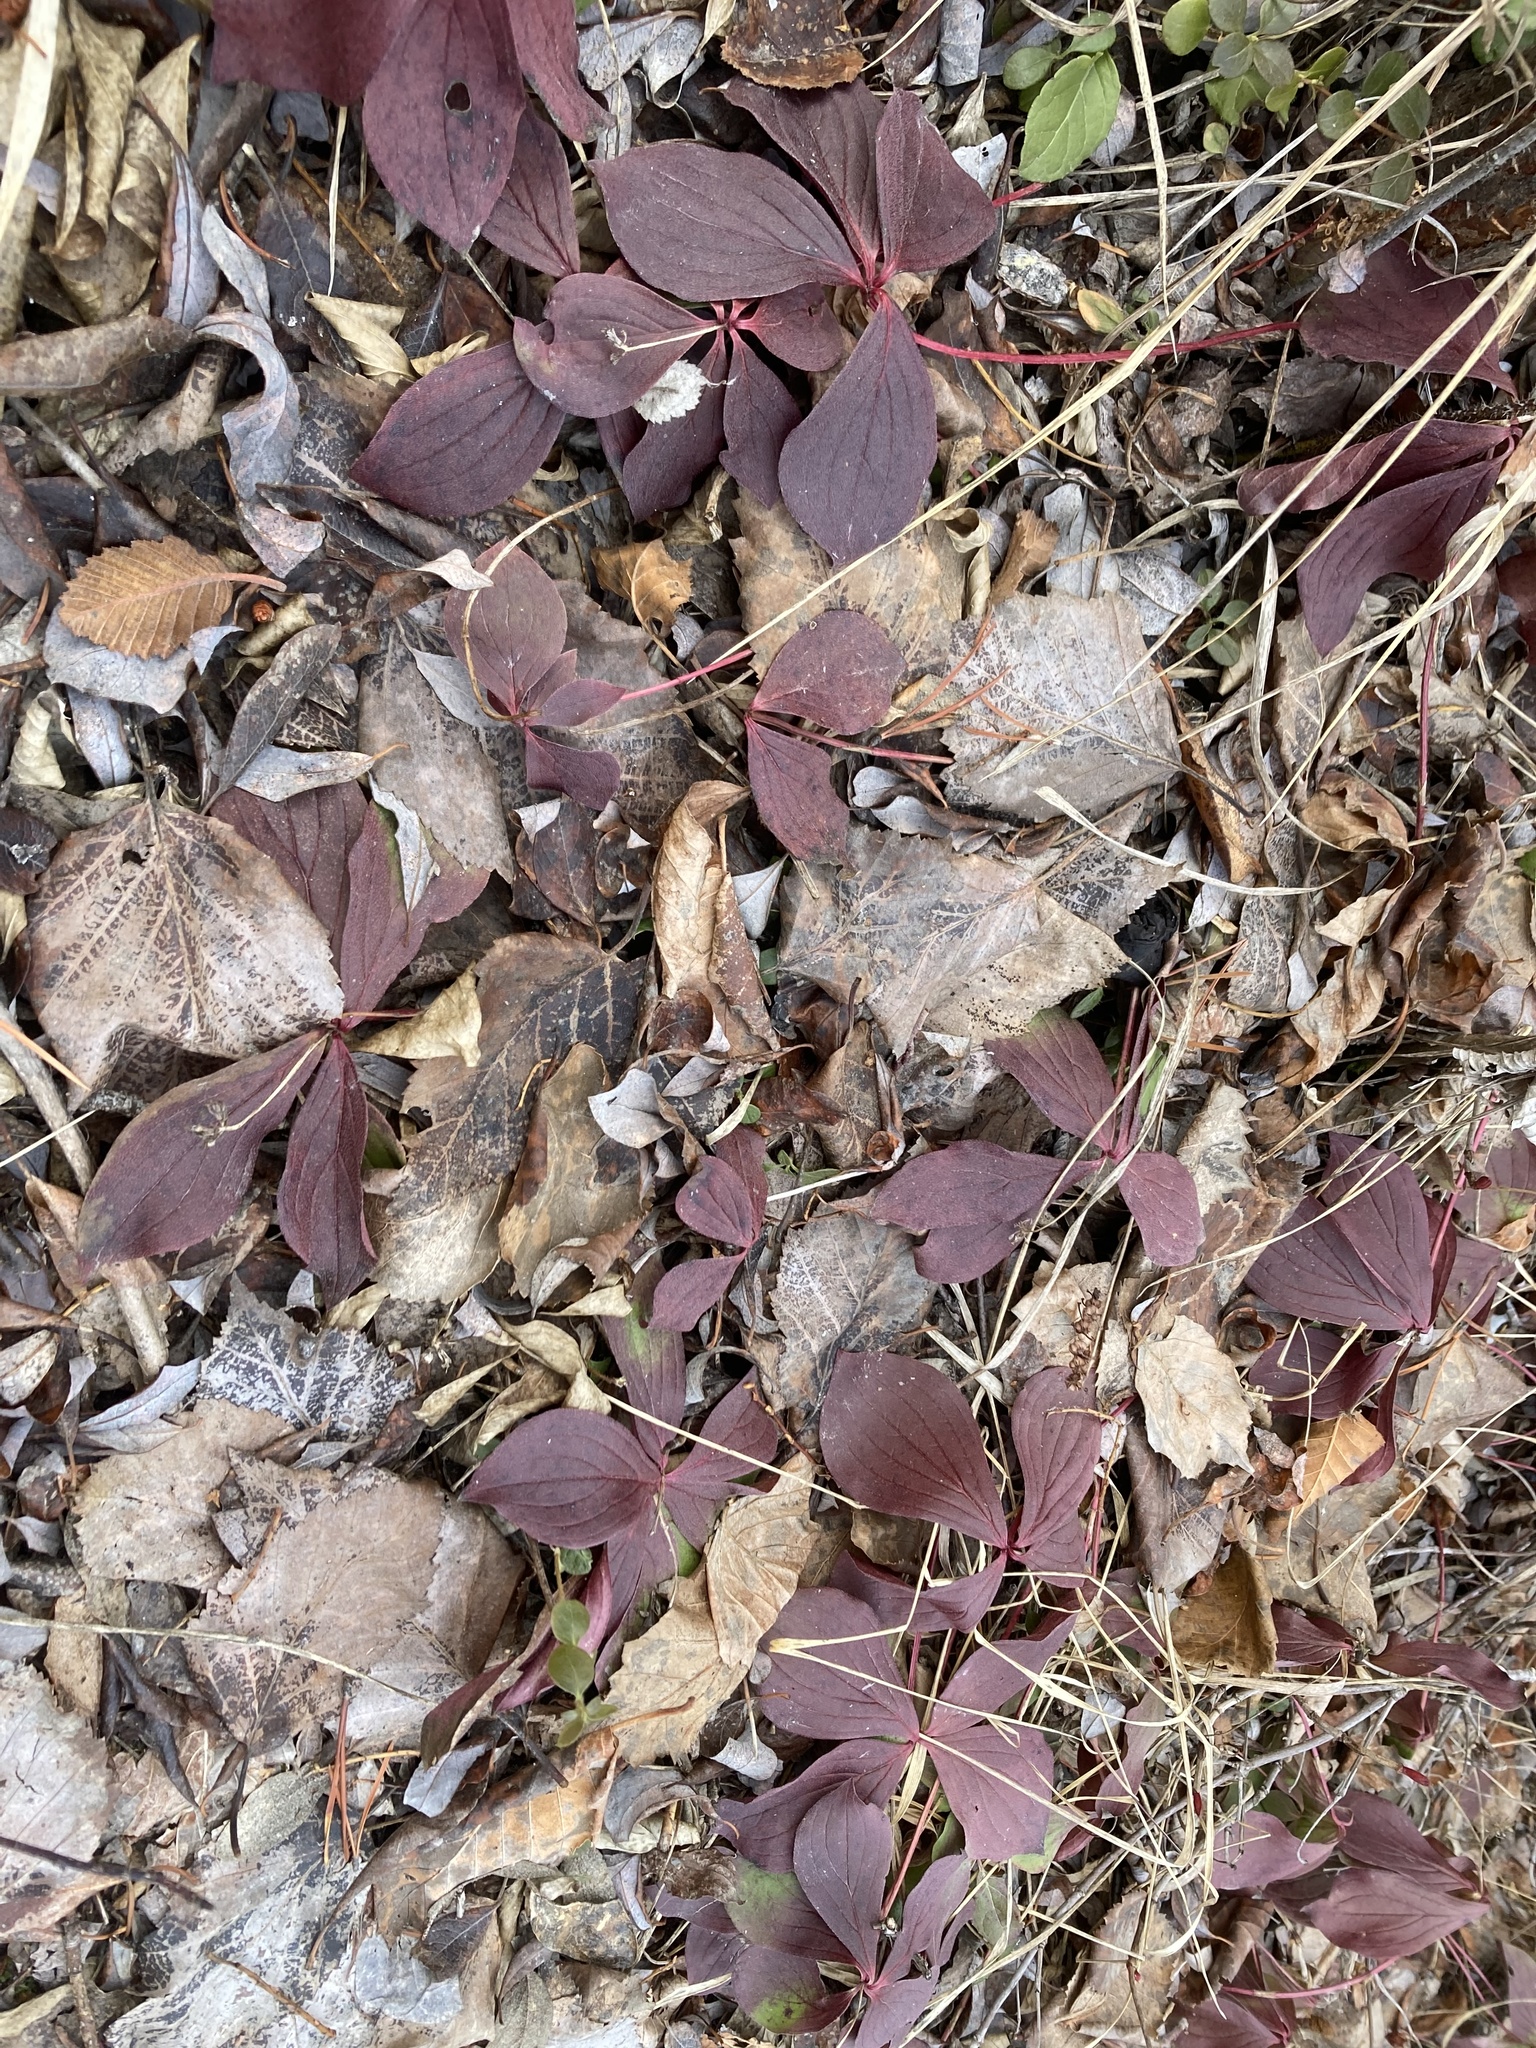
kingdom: Plantae
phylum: Tracheophyta
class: Magnoliopsida
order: Cornales
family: Cornaceae
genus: Cornus
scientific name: Cornus canadensis
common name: Creeping dogwood
